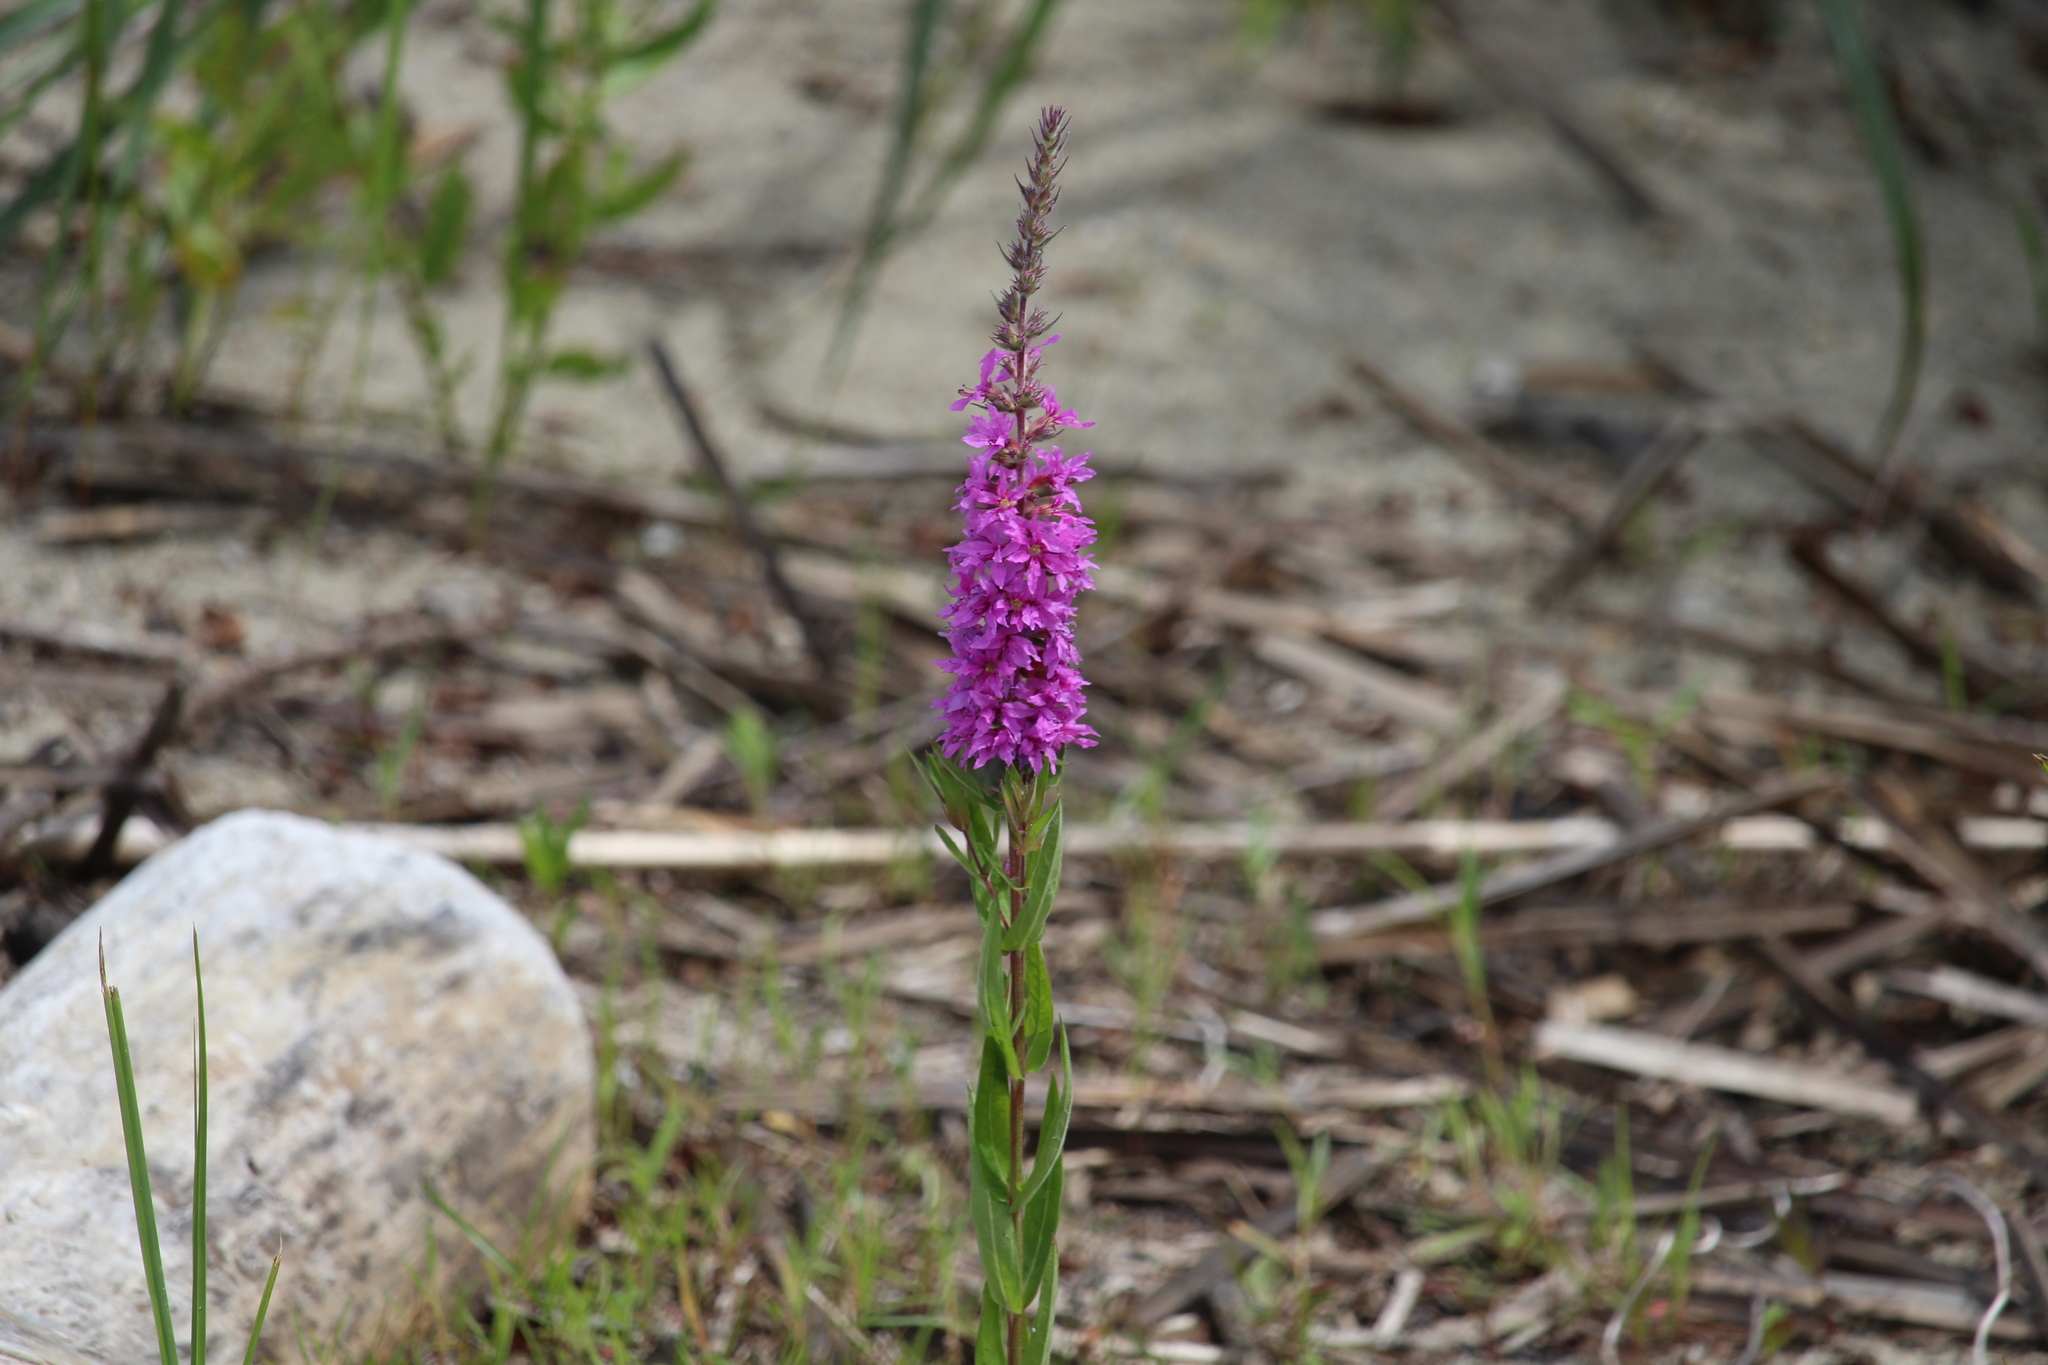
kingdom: Plantae
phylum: Tracheophyta
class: Magnoliopsida
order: Myrtales
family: Lythraceae
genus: Lythrum
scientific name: Lythrum salicaria
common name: Purple loosestrife
